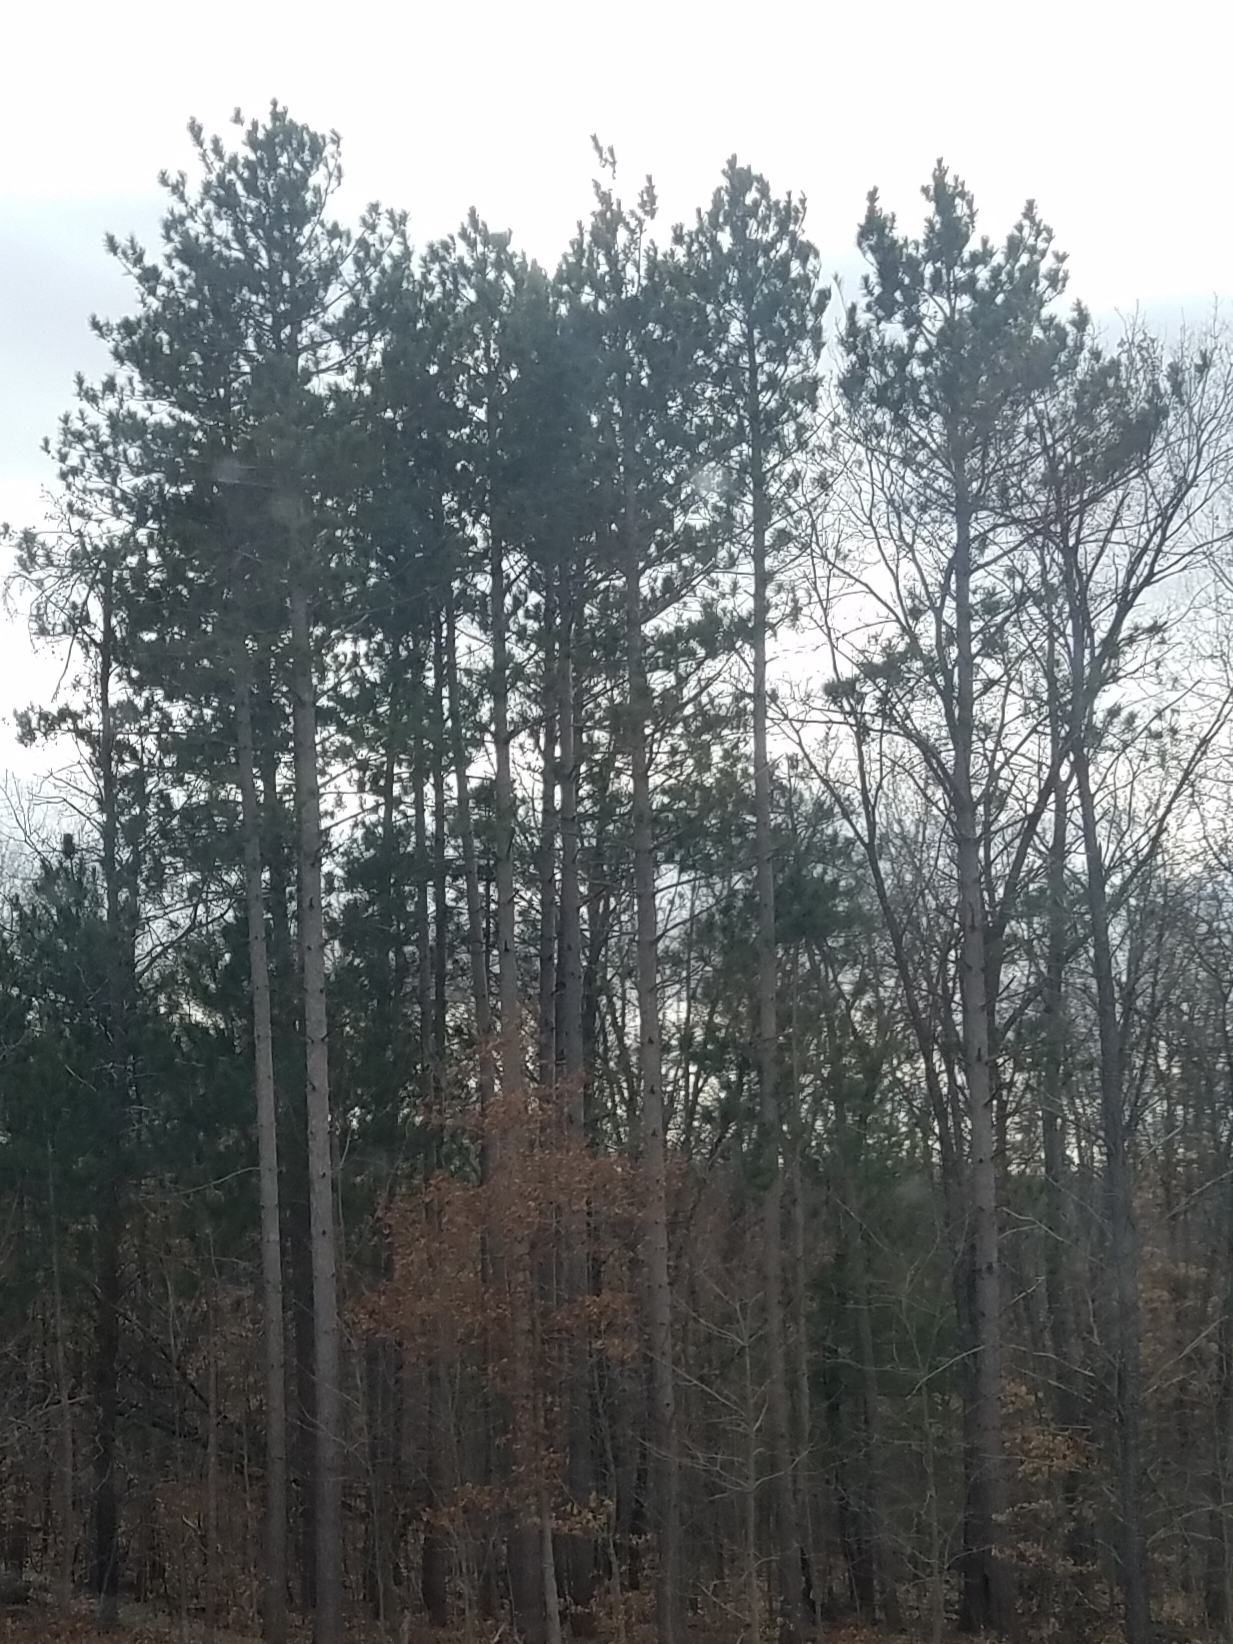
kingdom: Plantae
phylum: Tracheophyta
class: Pinopsida
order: Pinales
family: Pinaceae
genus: Pinus
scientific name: Pinus resinosa
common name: Norway pine
